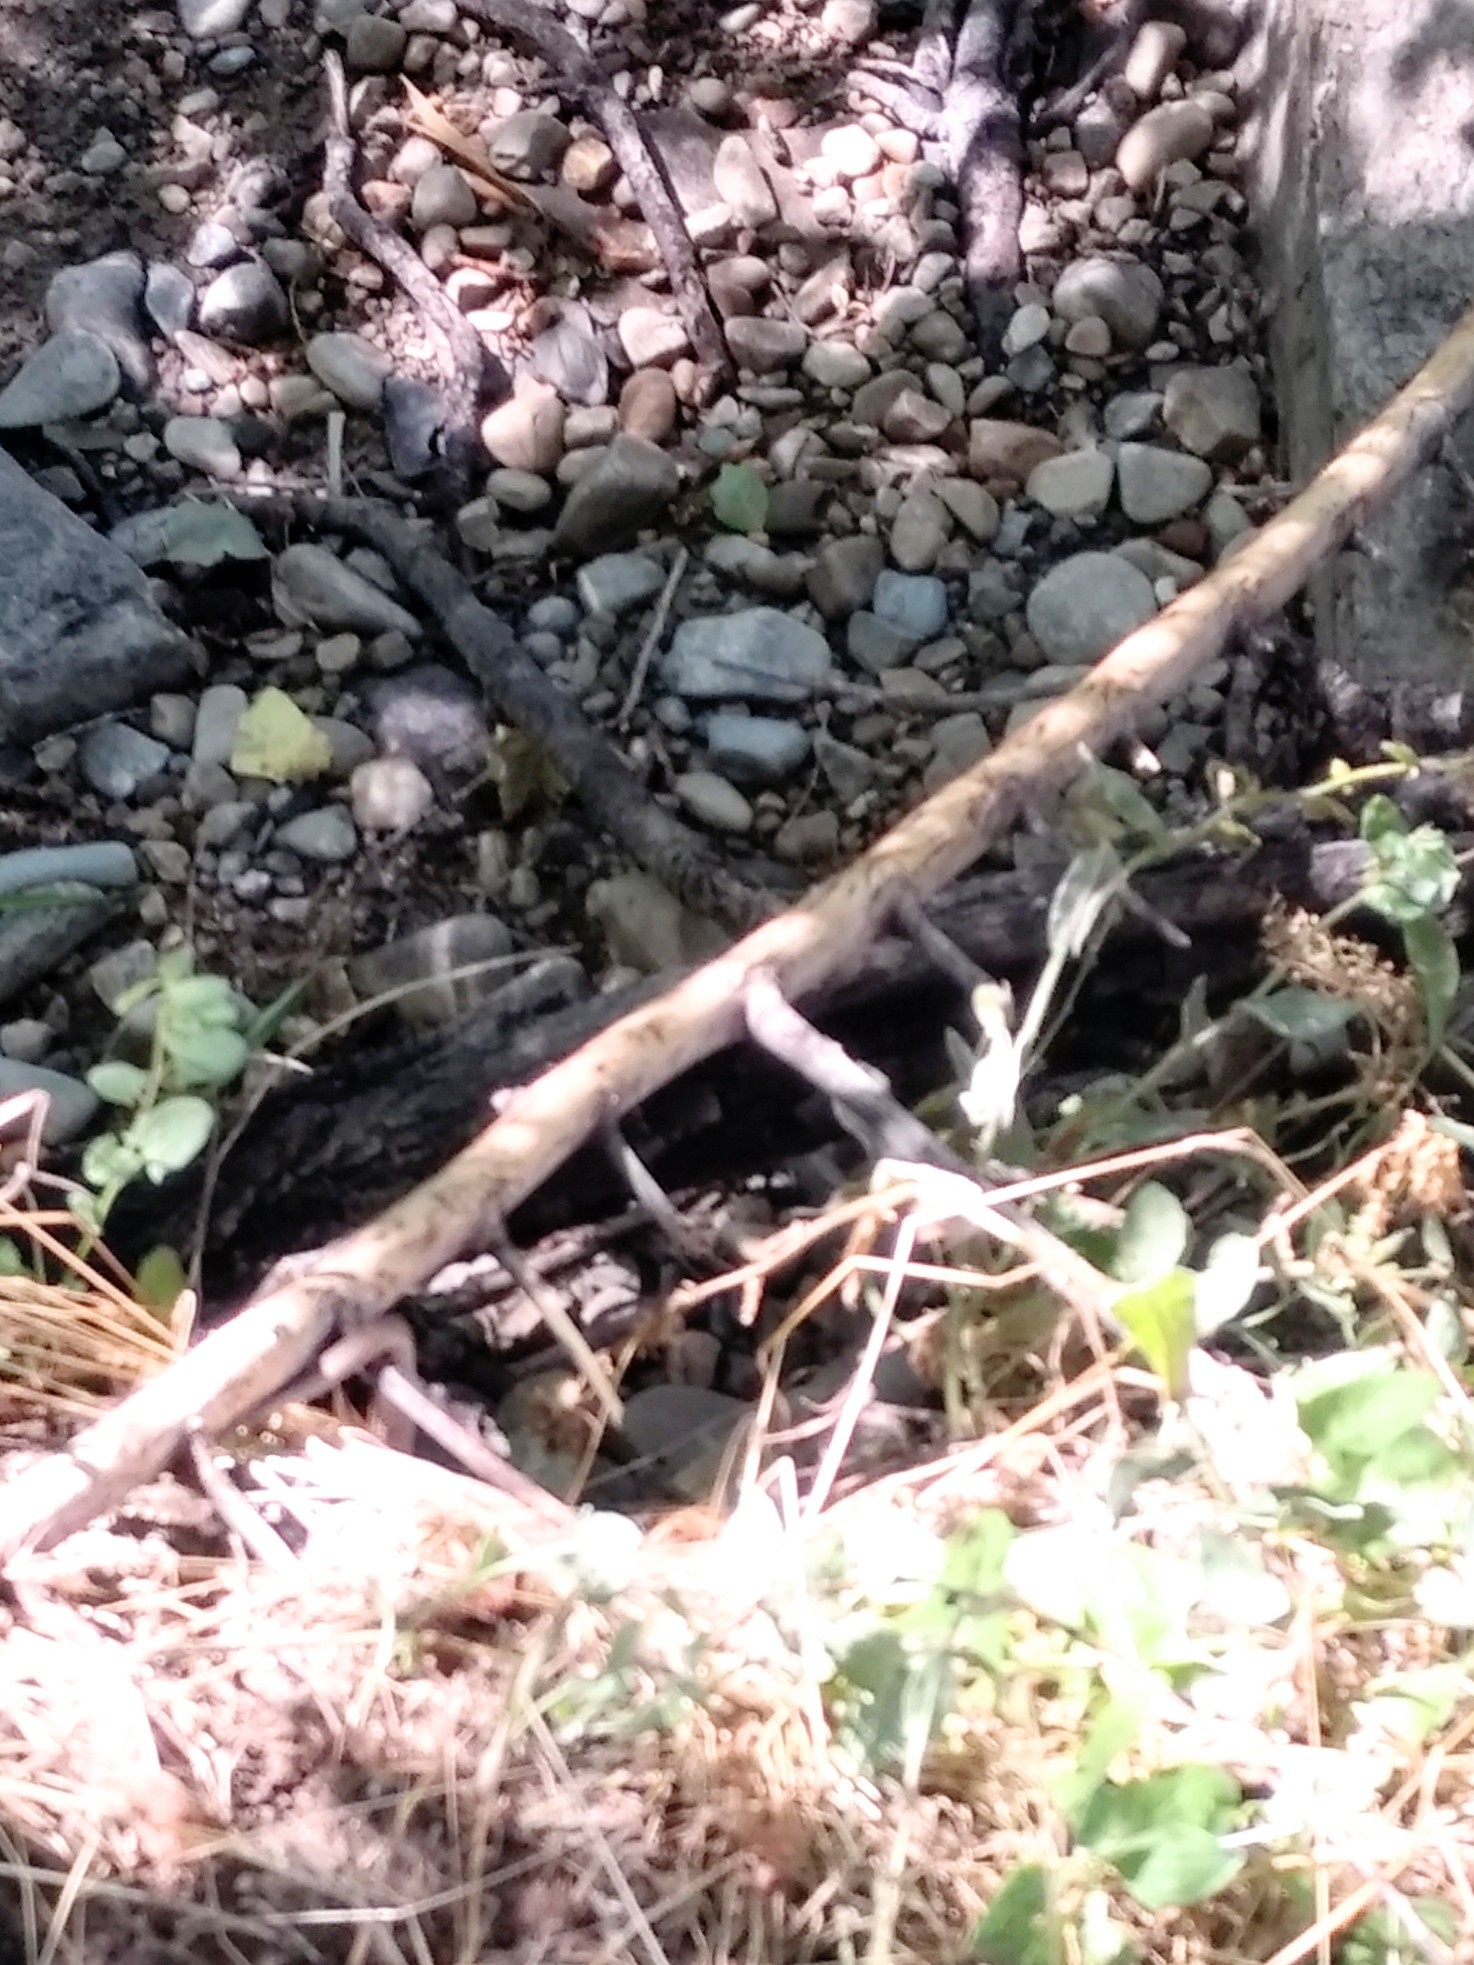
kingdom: Animalia
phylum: Chordata
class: Squamata
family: Colubridae
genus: Thamnophis
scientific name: Thamnophis elegans
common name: Western terrestrial garter snake
